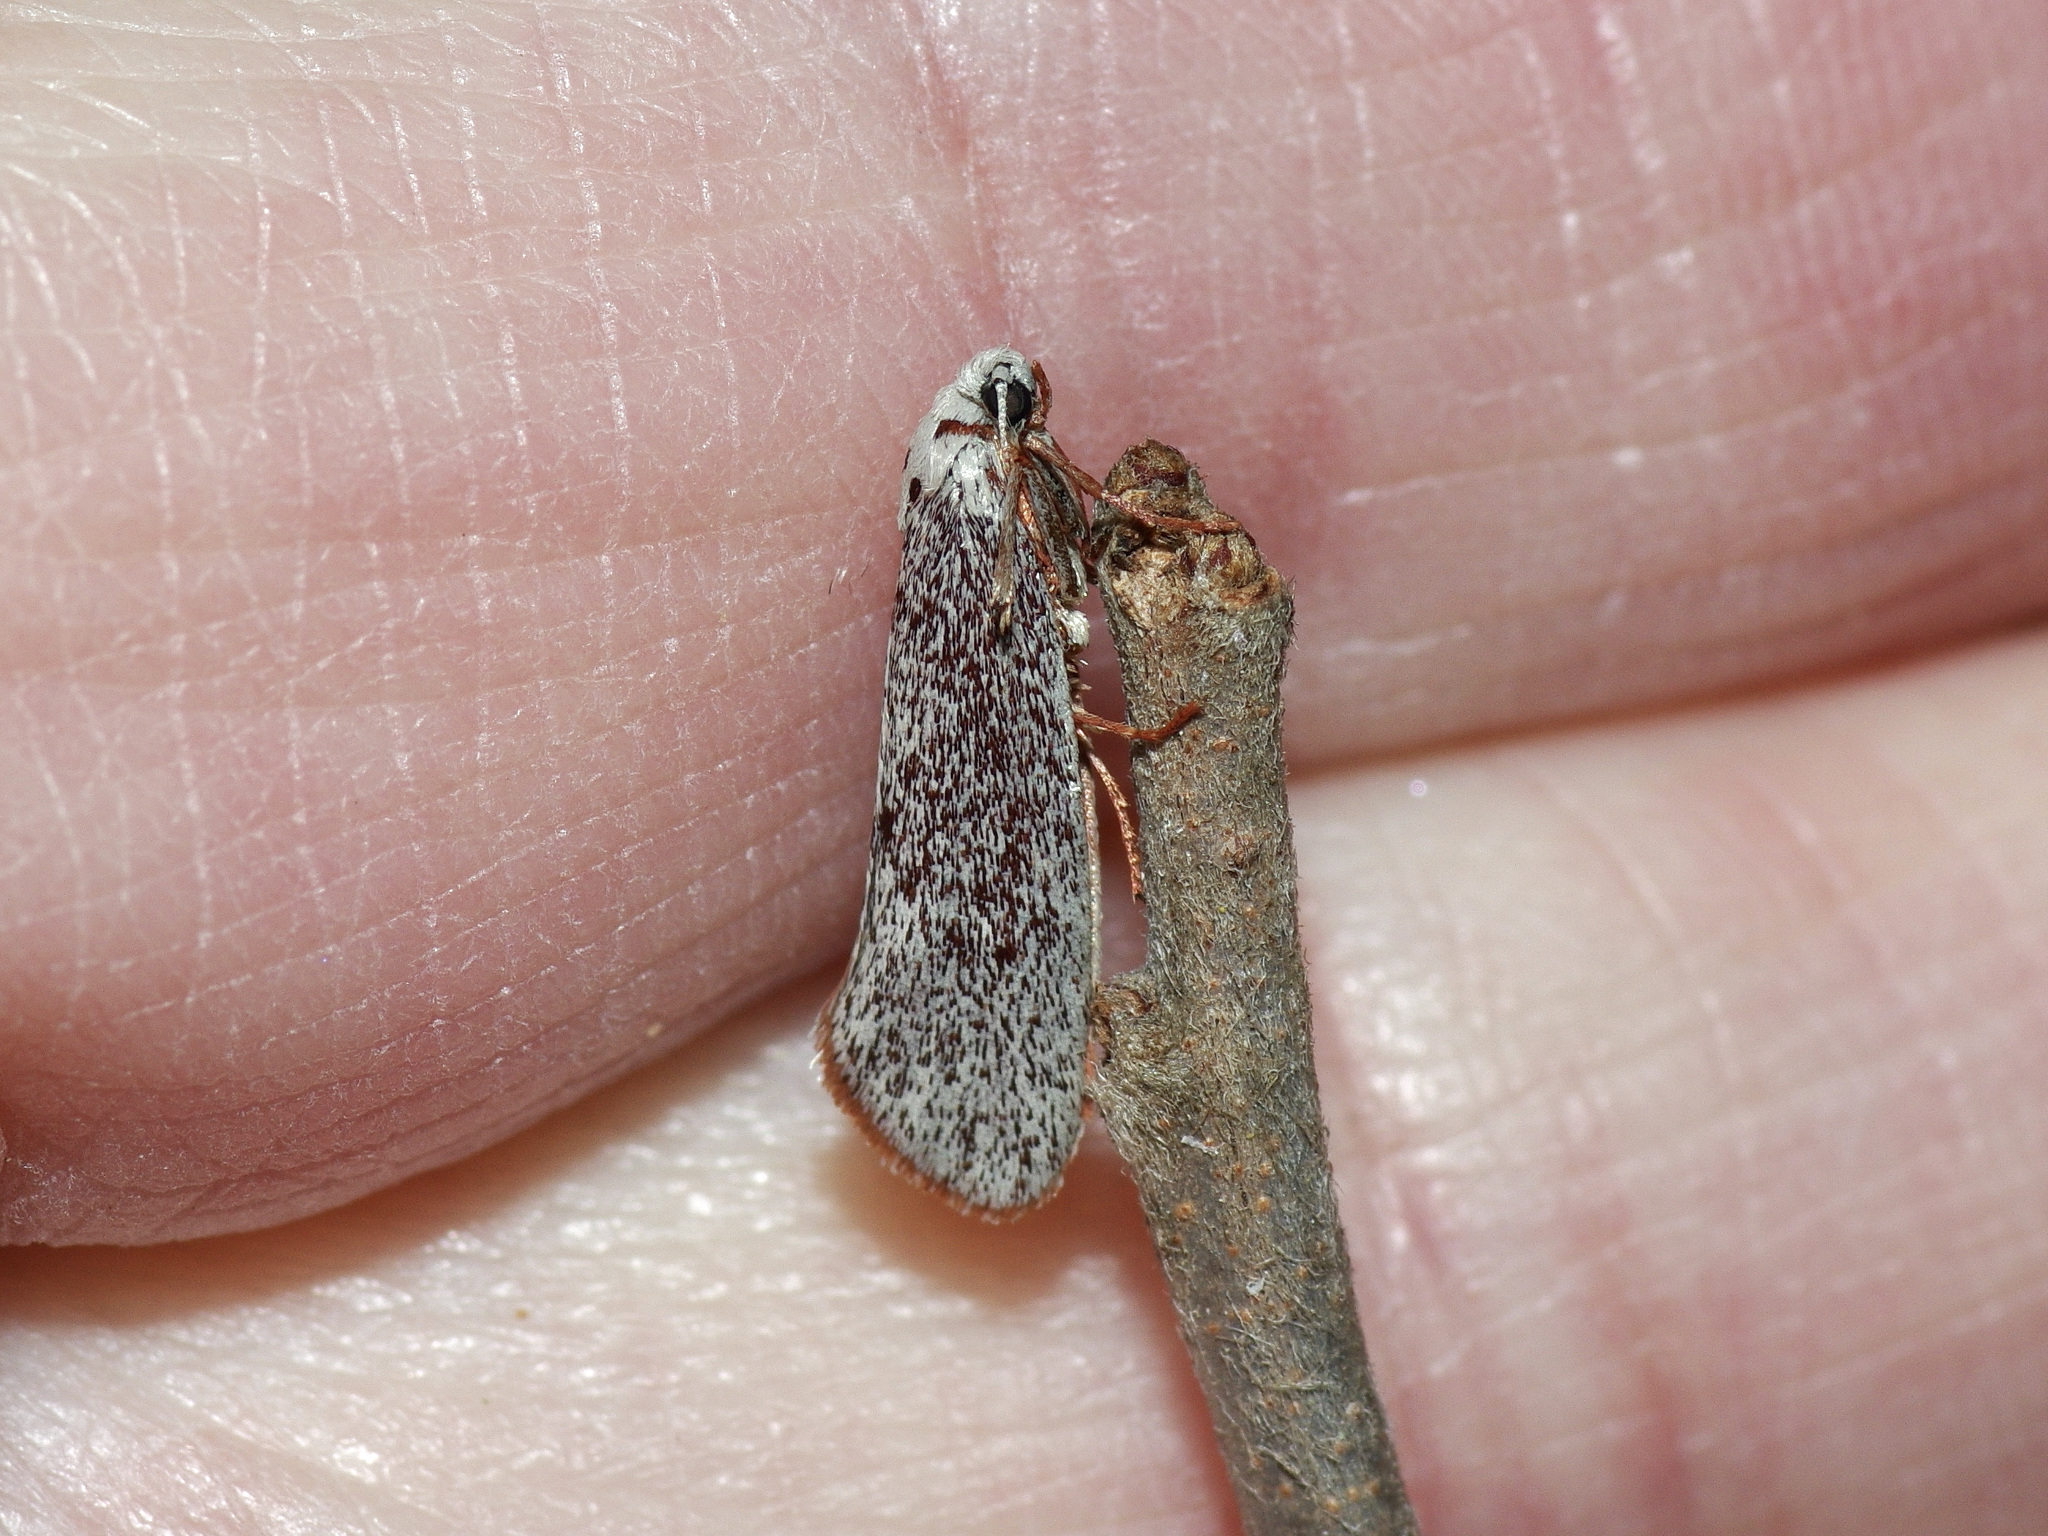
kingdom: Animalia
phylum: Arthropoda
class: Insecta
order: Lepidoptera
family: Lacturidae
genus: Lactura
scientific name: Lactura
